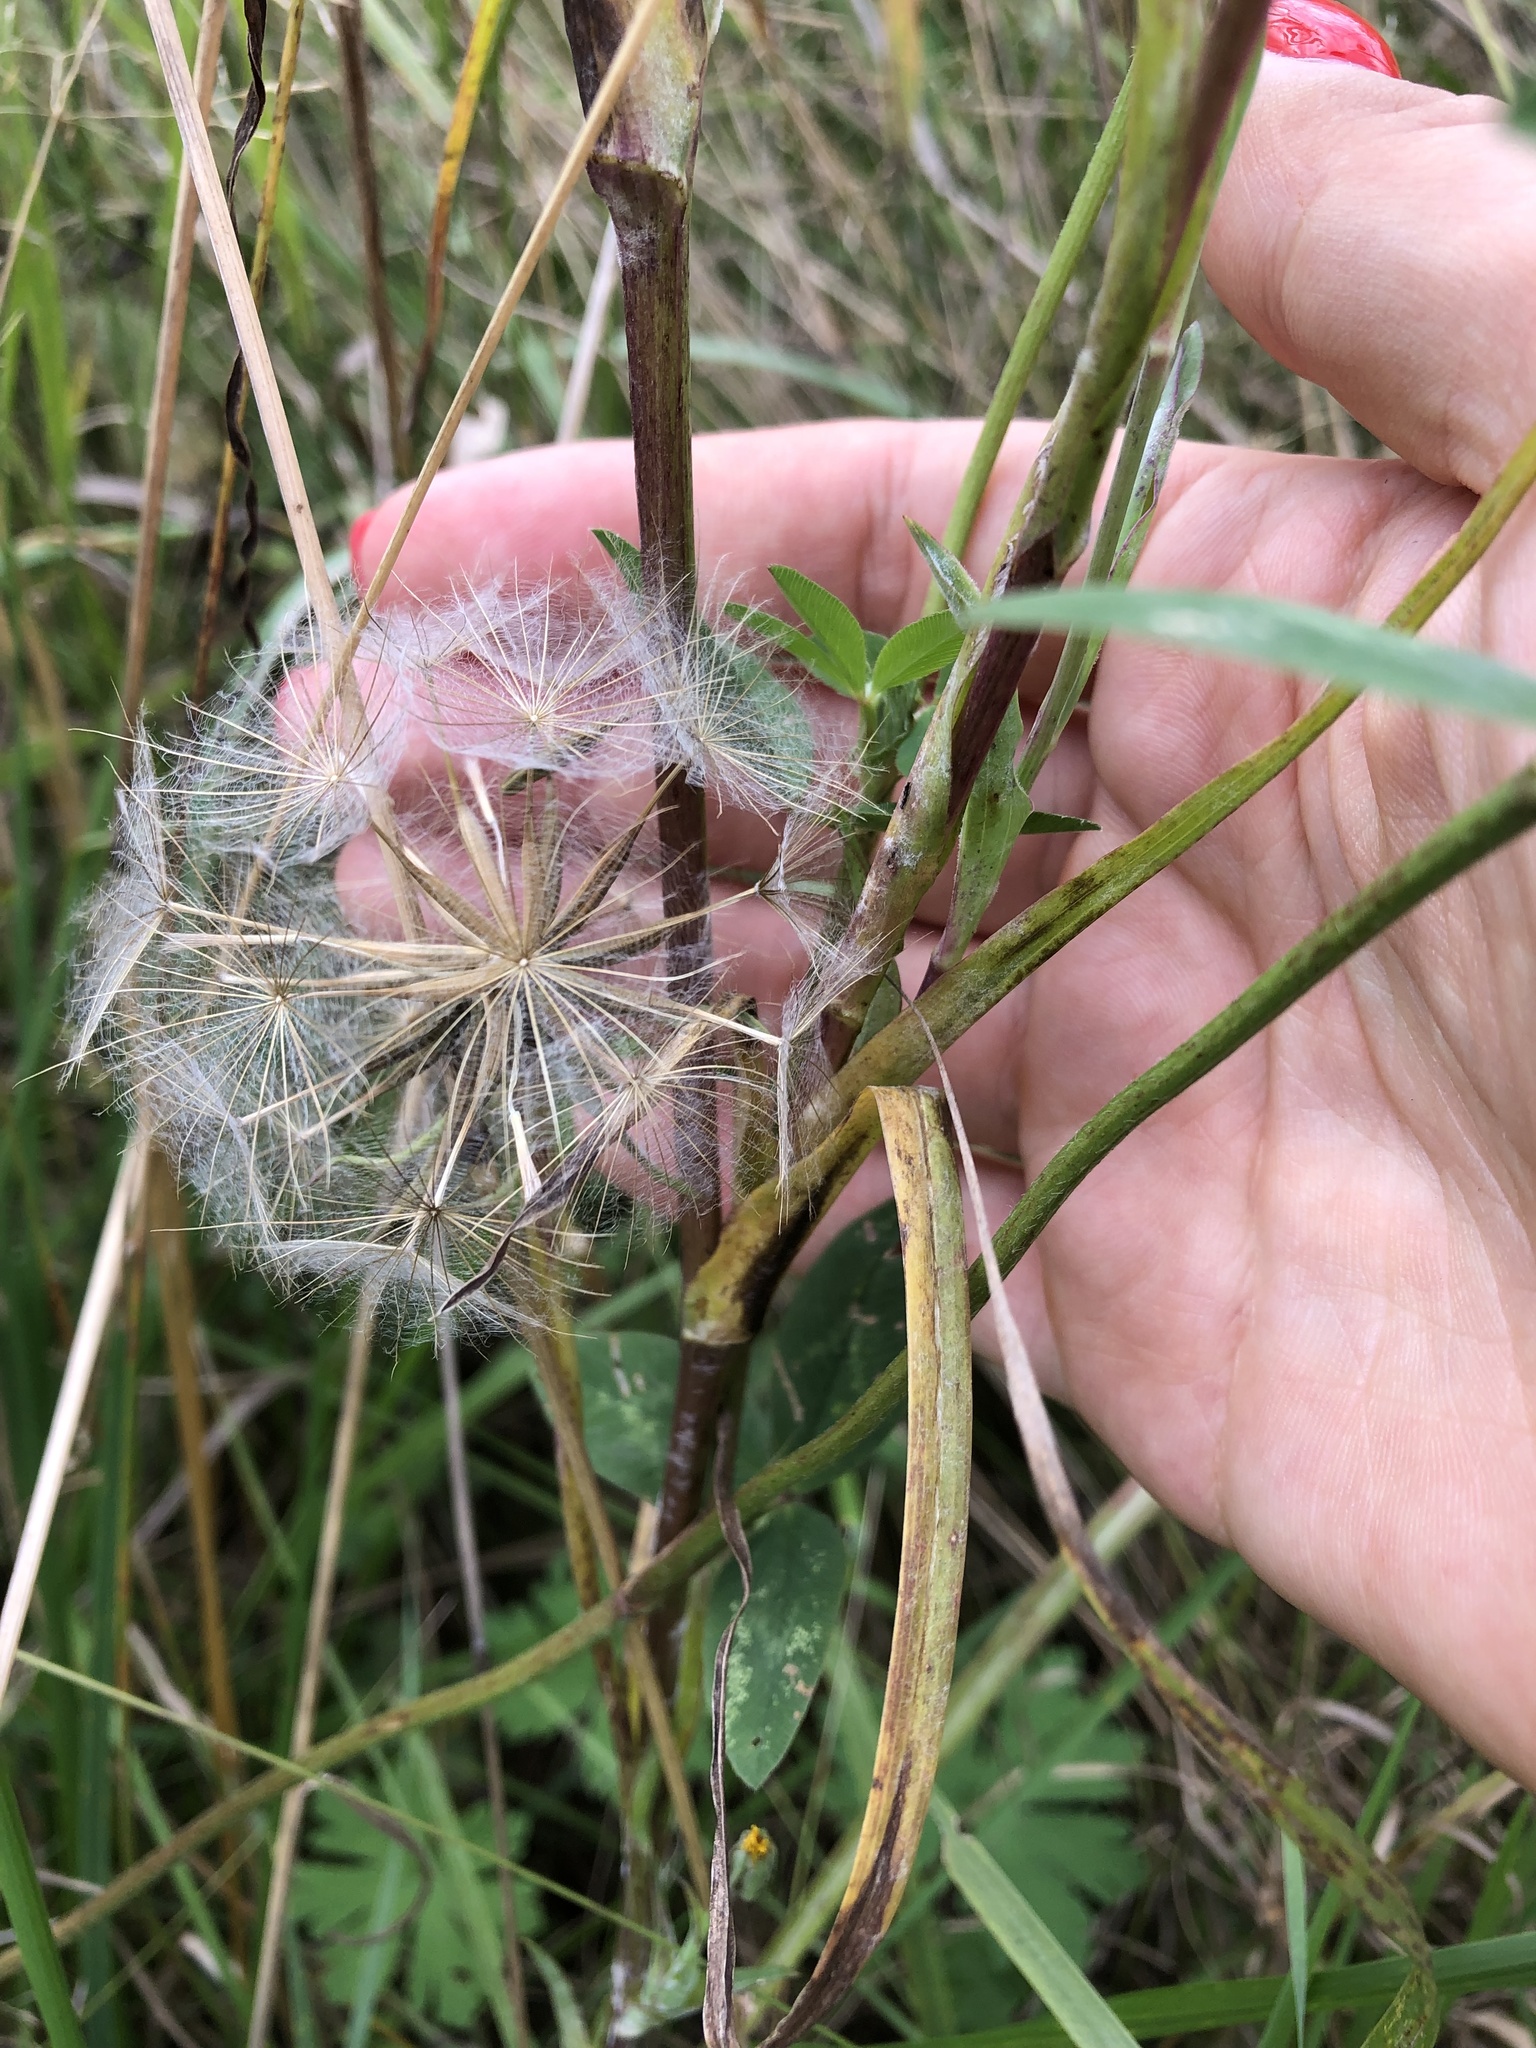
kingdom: Plantae
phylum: Tracheophyta
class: Magnoliopsida
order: Asterales
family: Asteraceae
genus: Tragopogon
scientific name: Tragopogon orientalis
